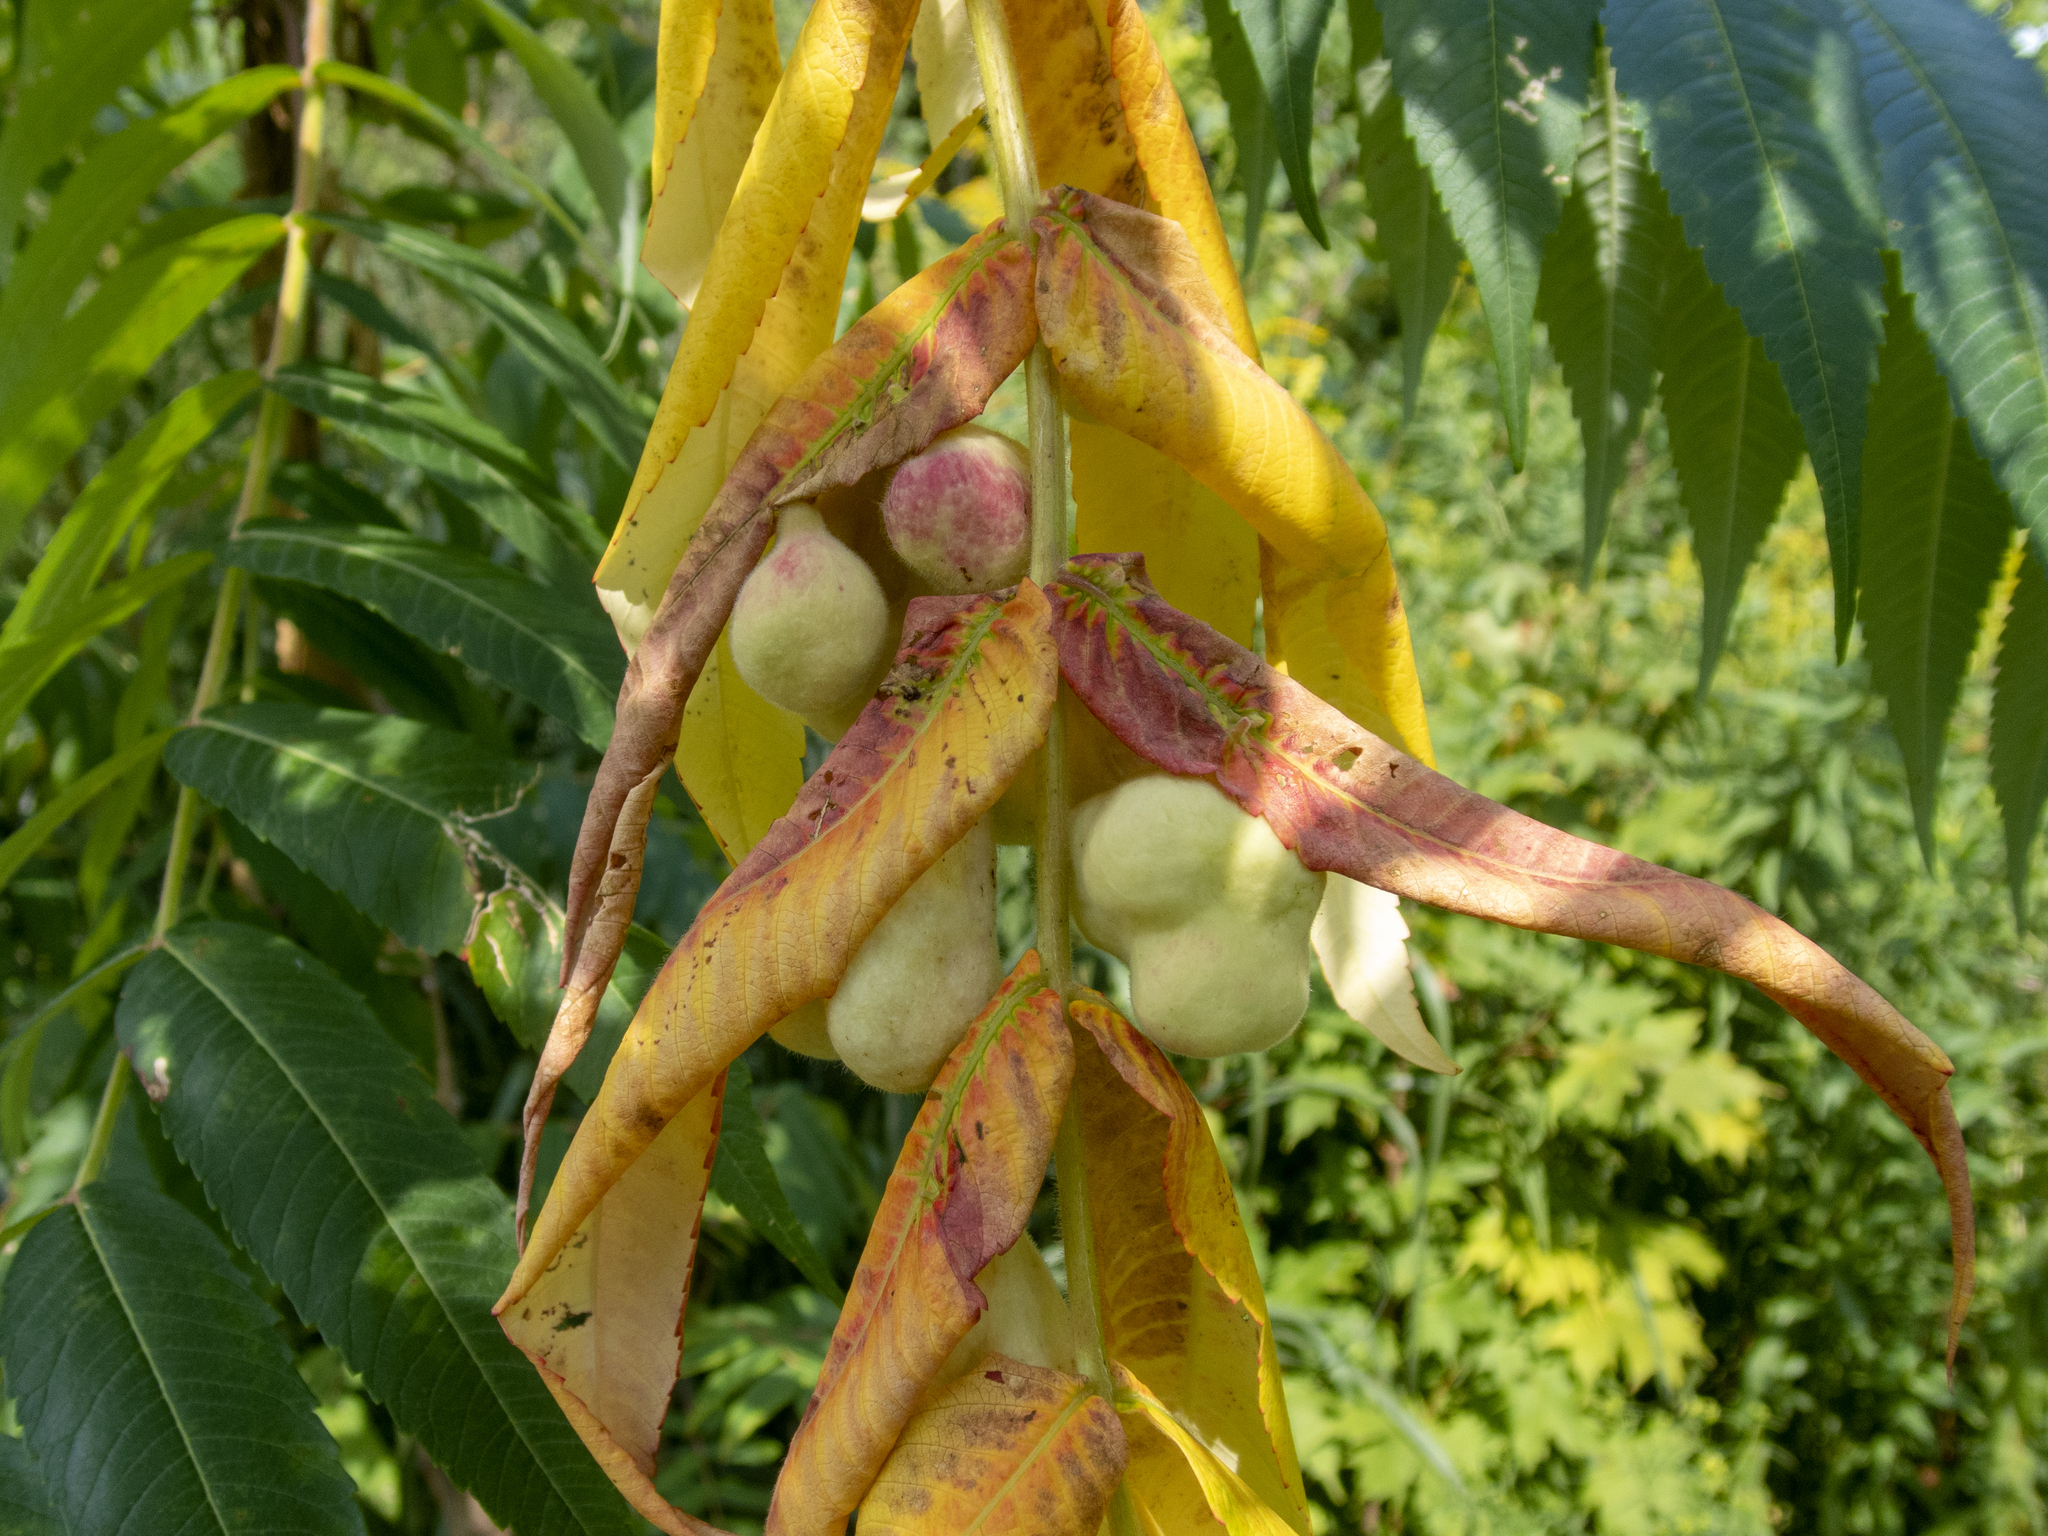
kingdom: Animalia
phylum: Arthropoda
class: Insecta
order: Hemiptera
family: Aphididae
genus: Melaphis
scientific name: Melaphis rhois
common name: Sumac gall aphid
